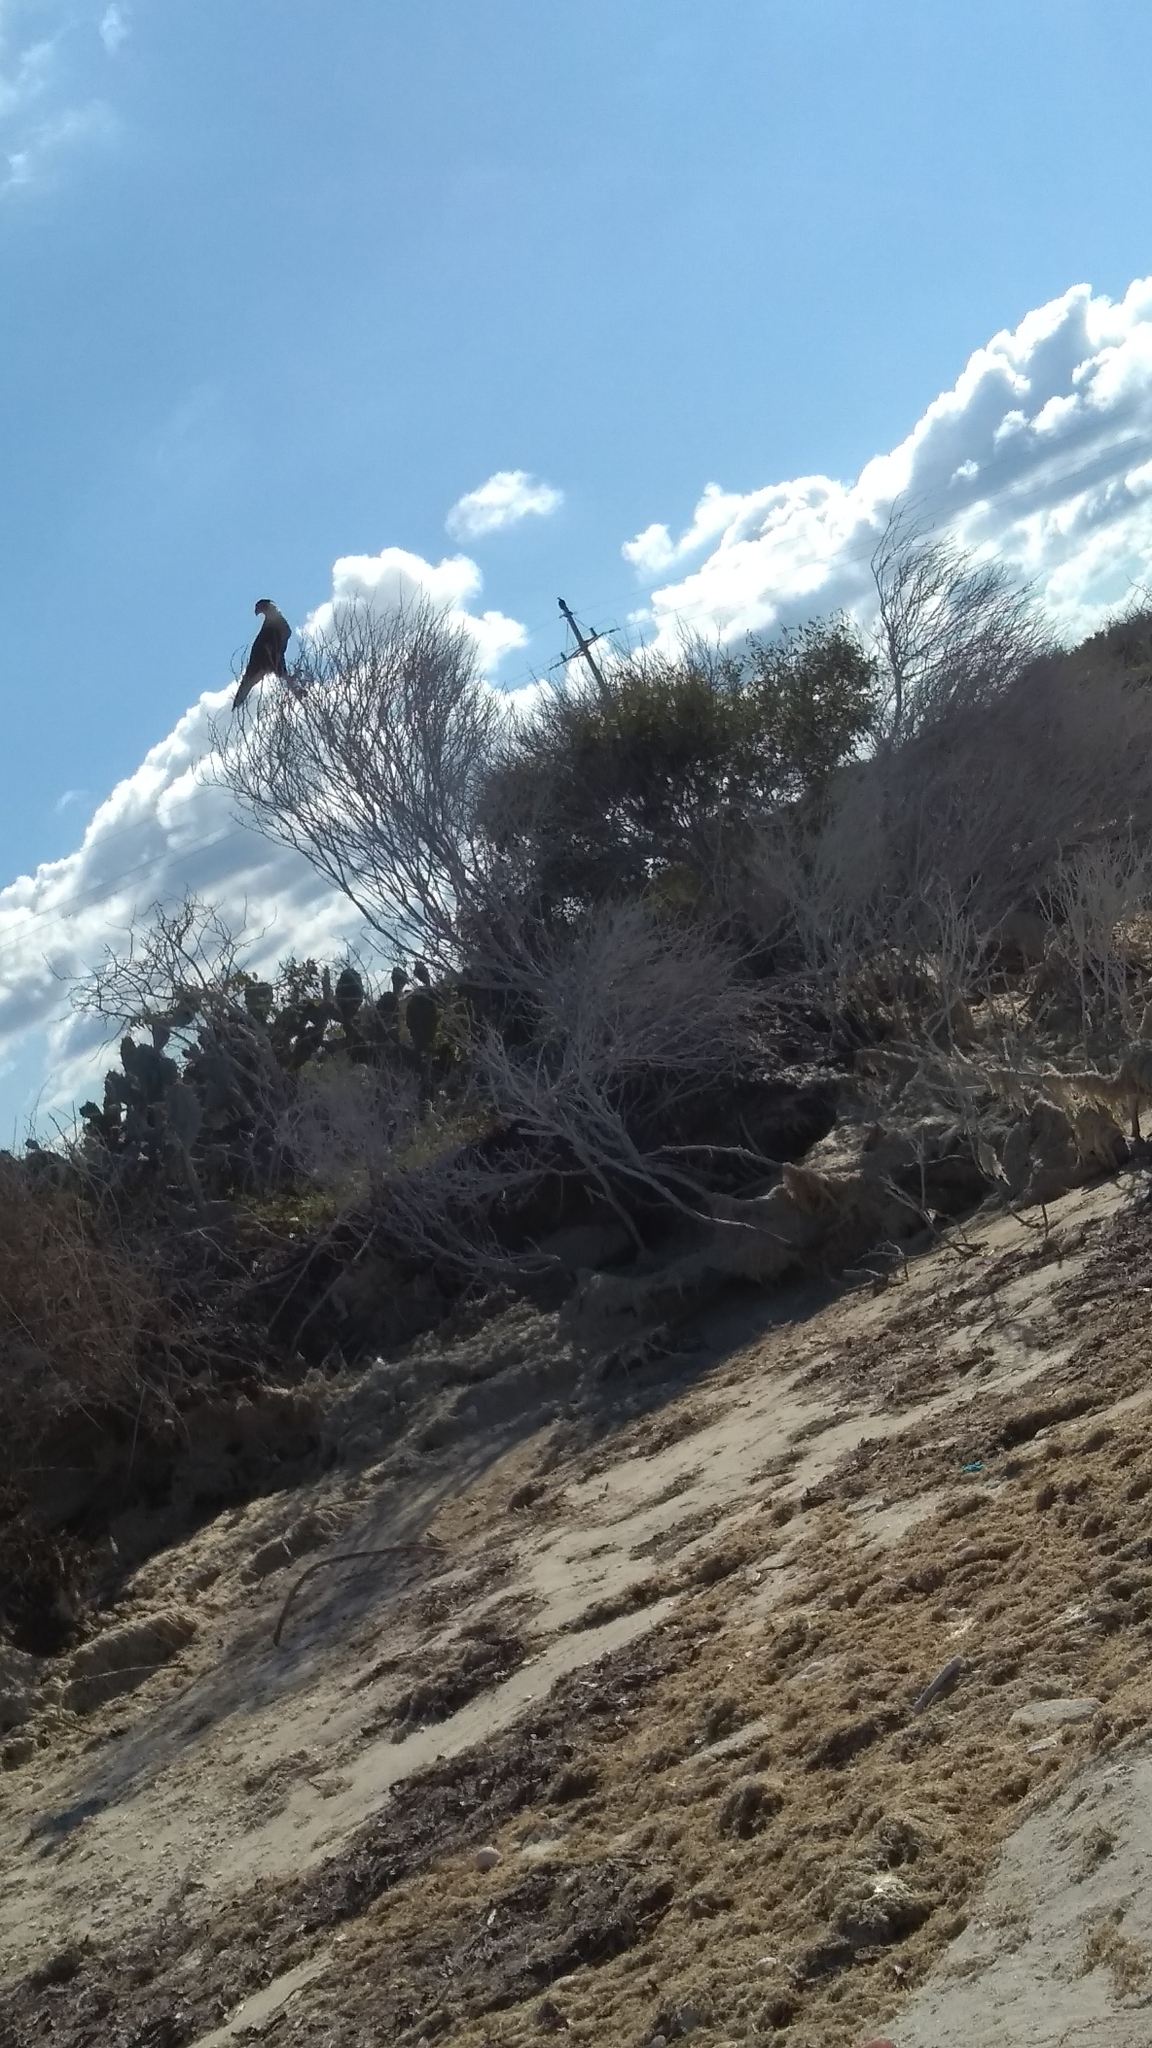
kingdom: Animalia
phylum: Chordata
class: Aves
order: Falconiformes
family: Falconidae
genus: Caracara
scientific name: Caracara plancus
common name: Southern caracara
